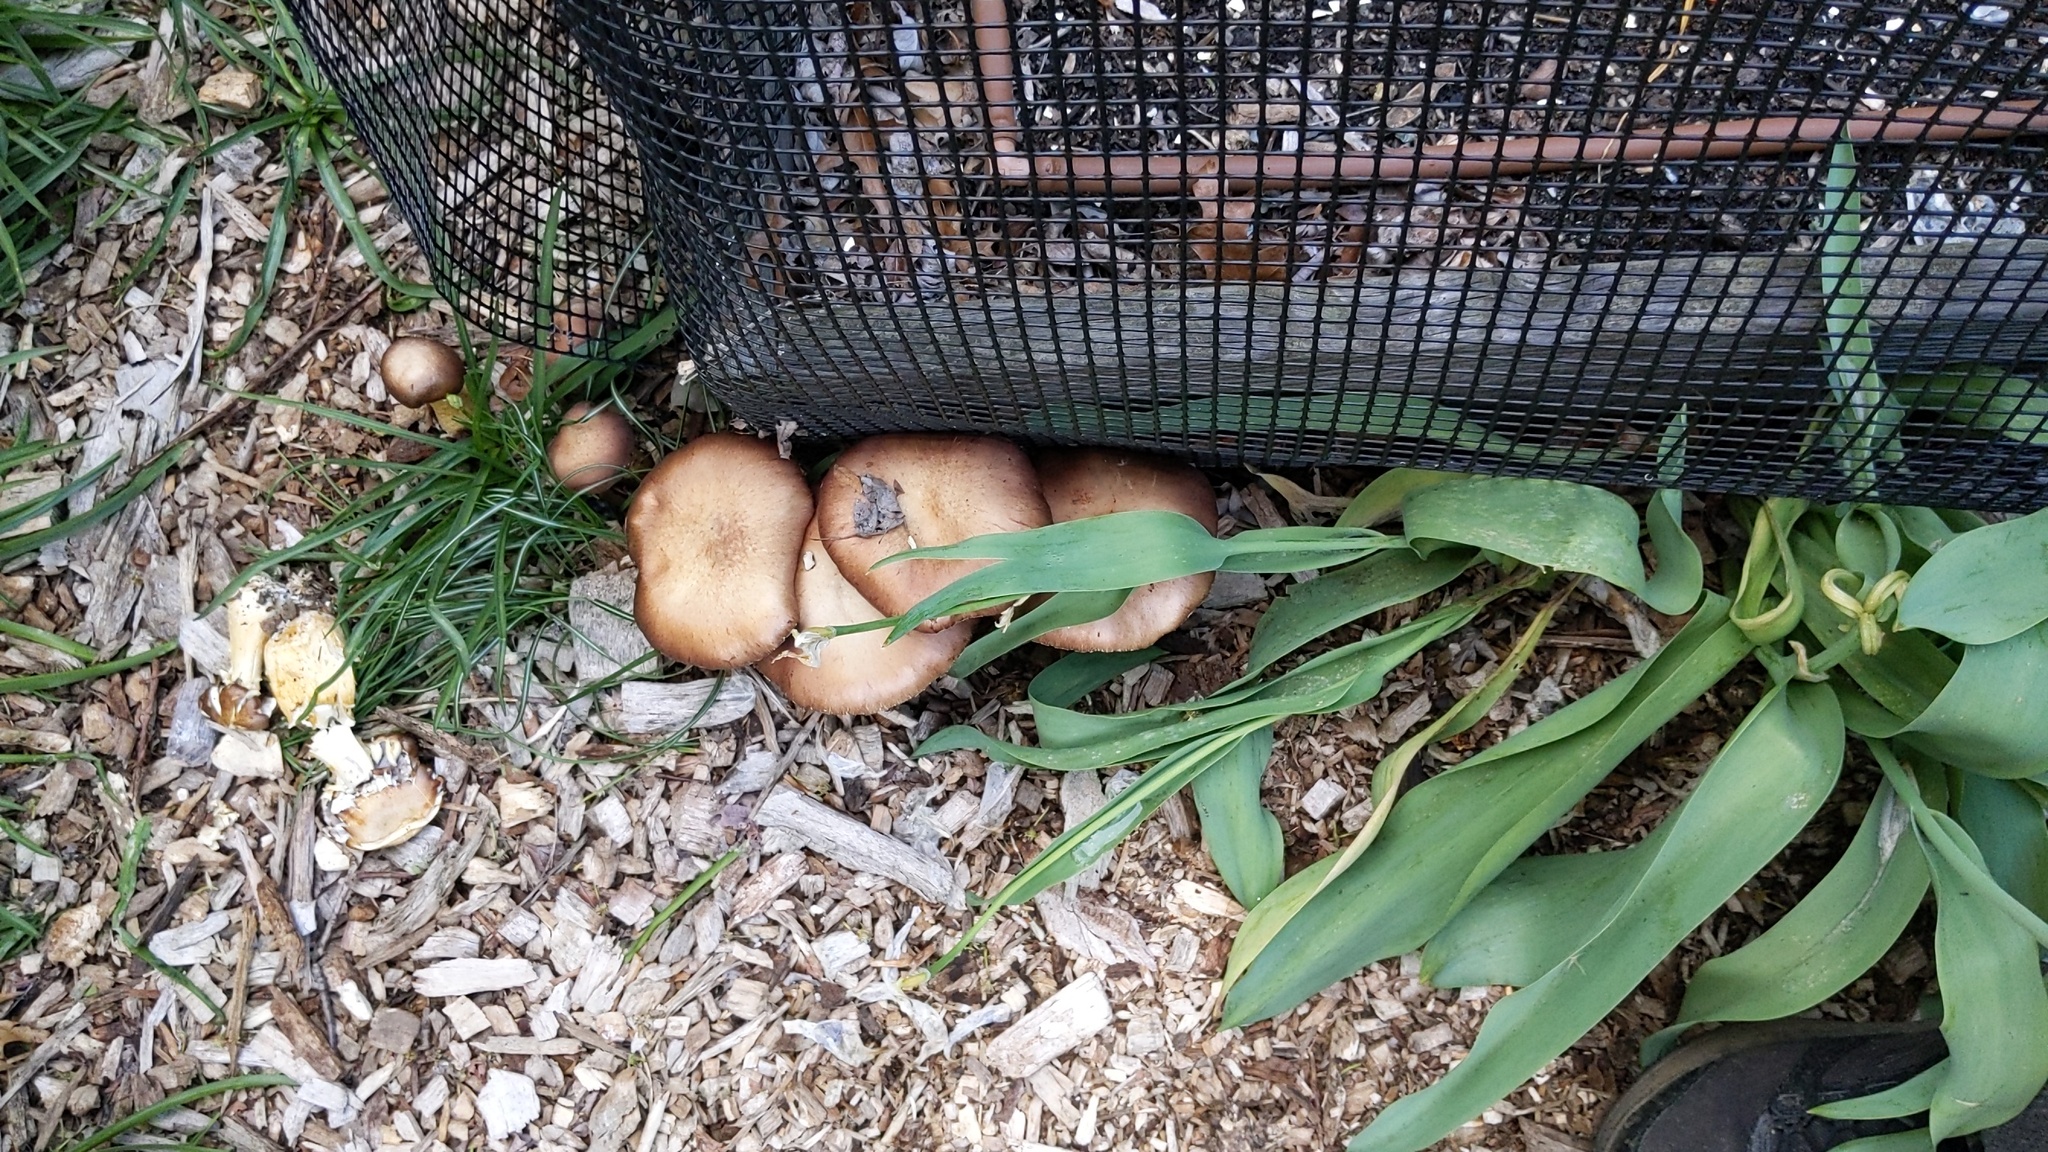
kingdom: Fungi
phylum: Basidiomycota
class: Agaricomycetes
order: Agaricales
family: Strophariaceae
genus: Stropharia
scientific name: Stropharia rugosoannulata
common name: Wine roundhead
